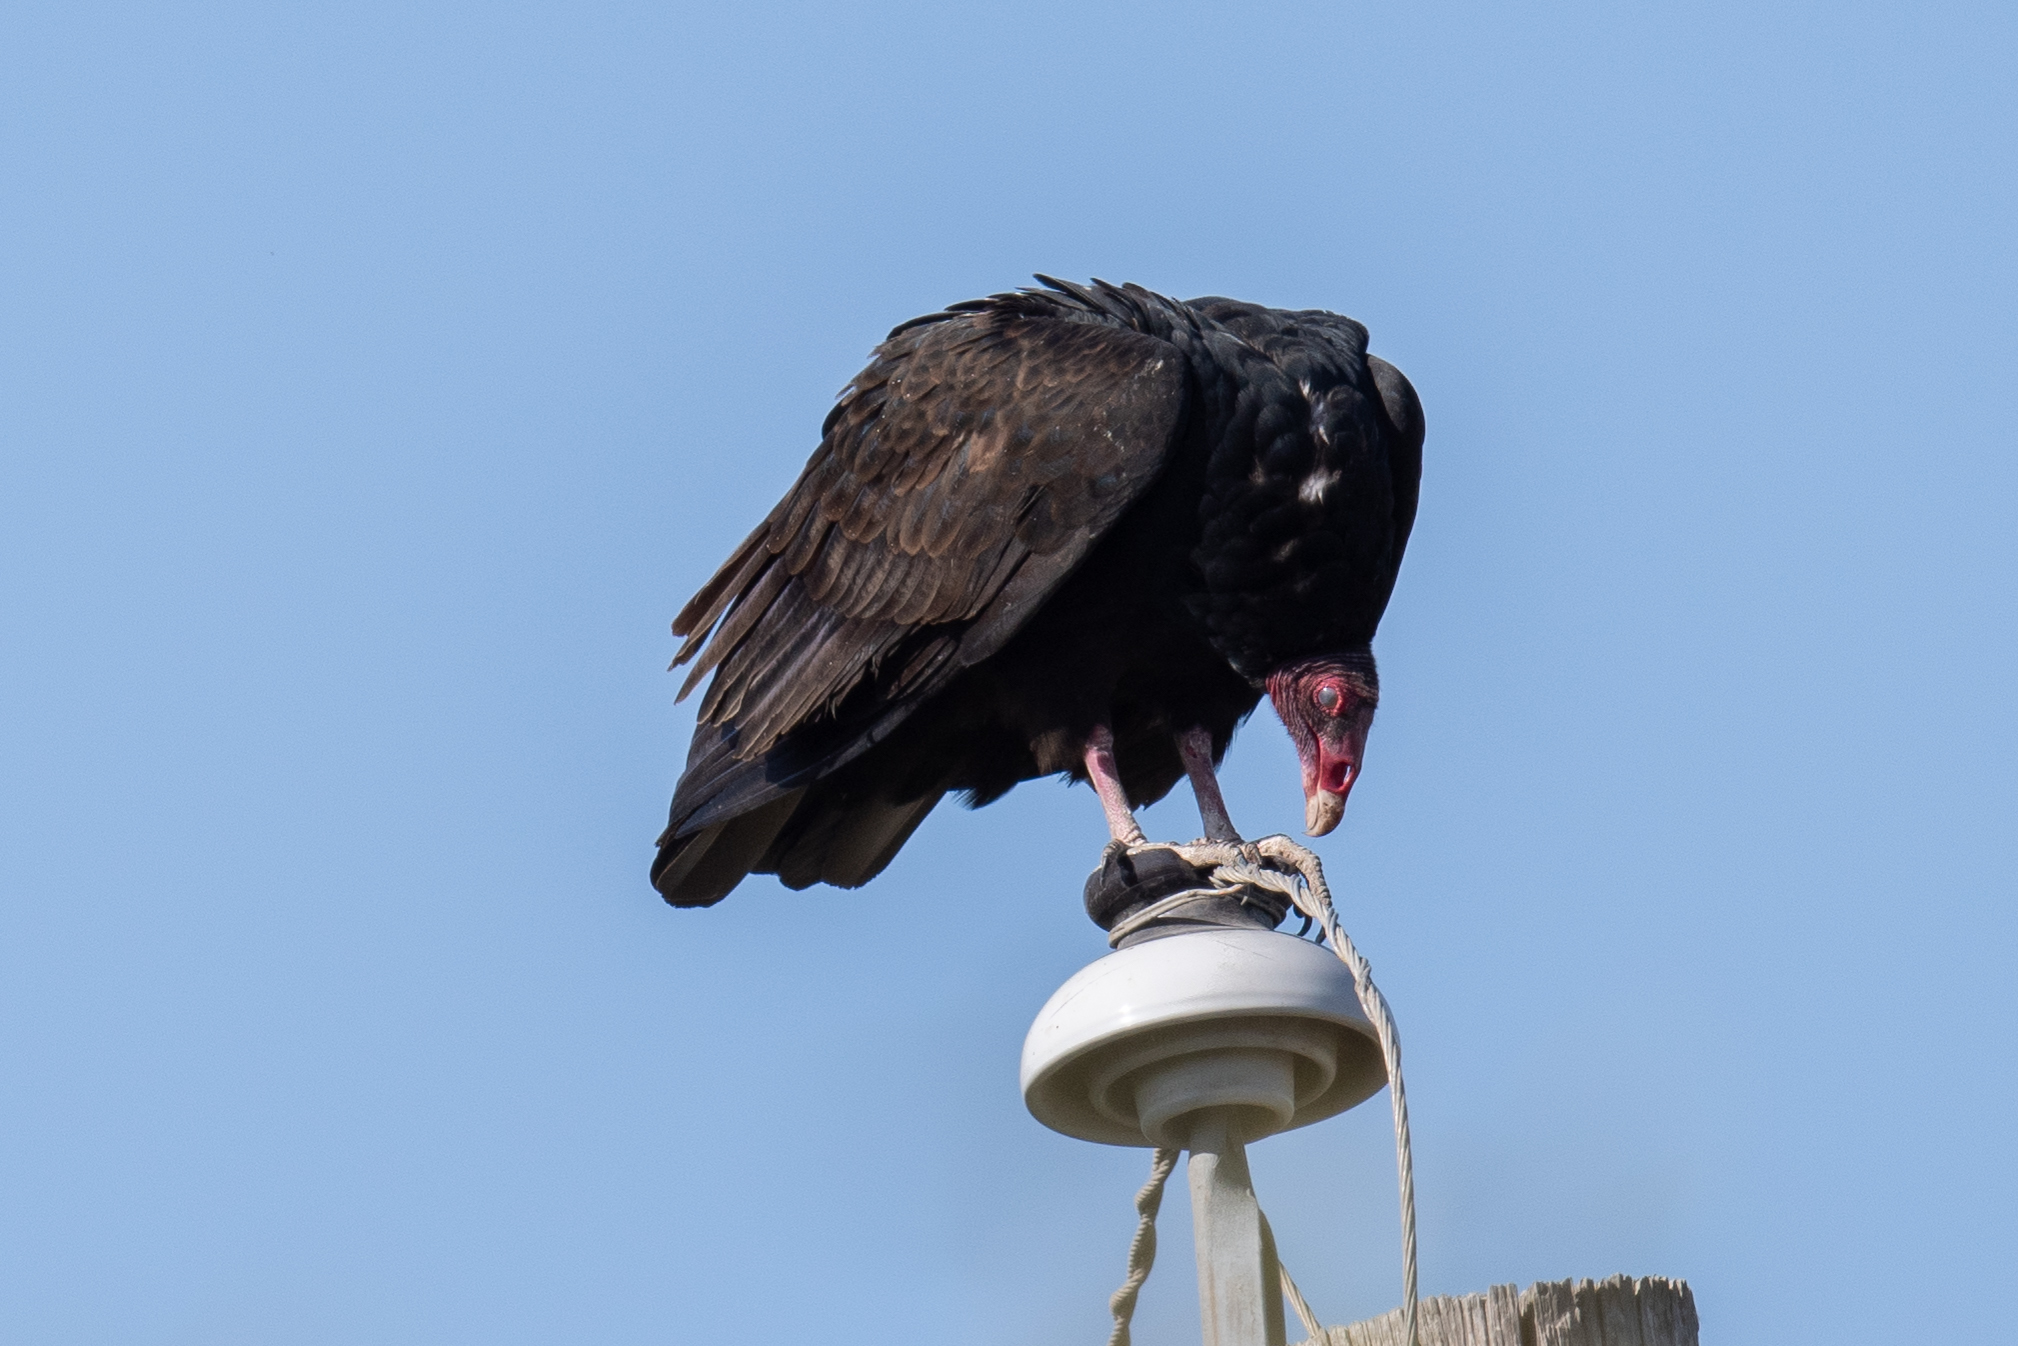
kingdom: Animalia
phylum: Chordata
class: Aves
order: Accipitriformes
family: Cathartidae
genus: Cathartes
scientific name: Cathartes aura
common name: Turkey vulture
